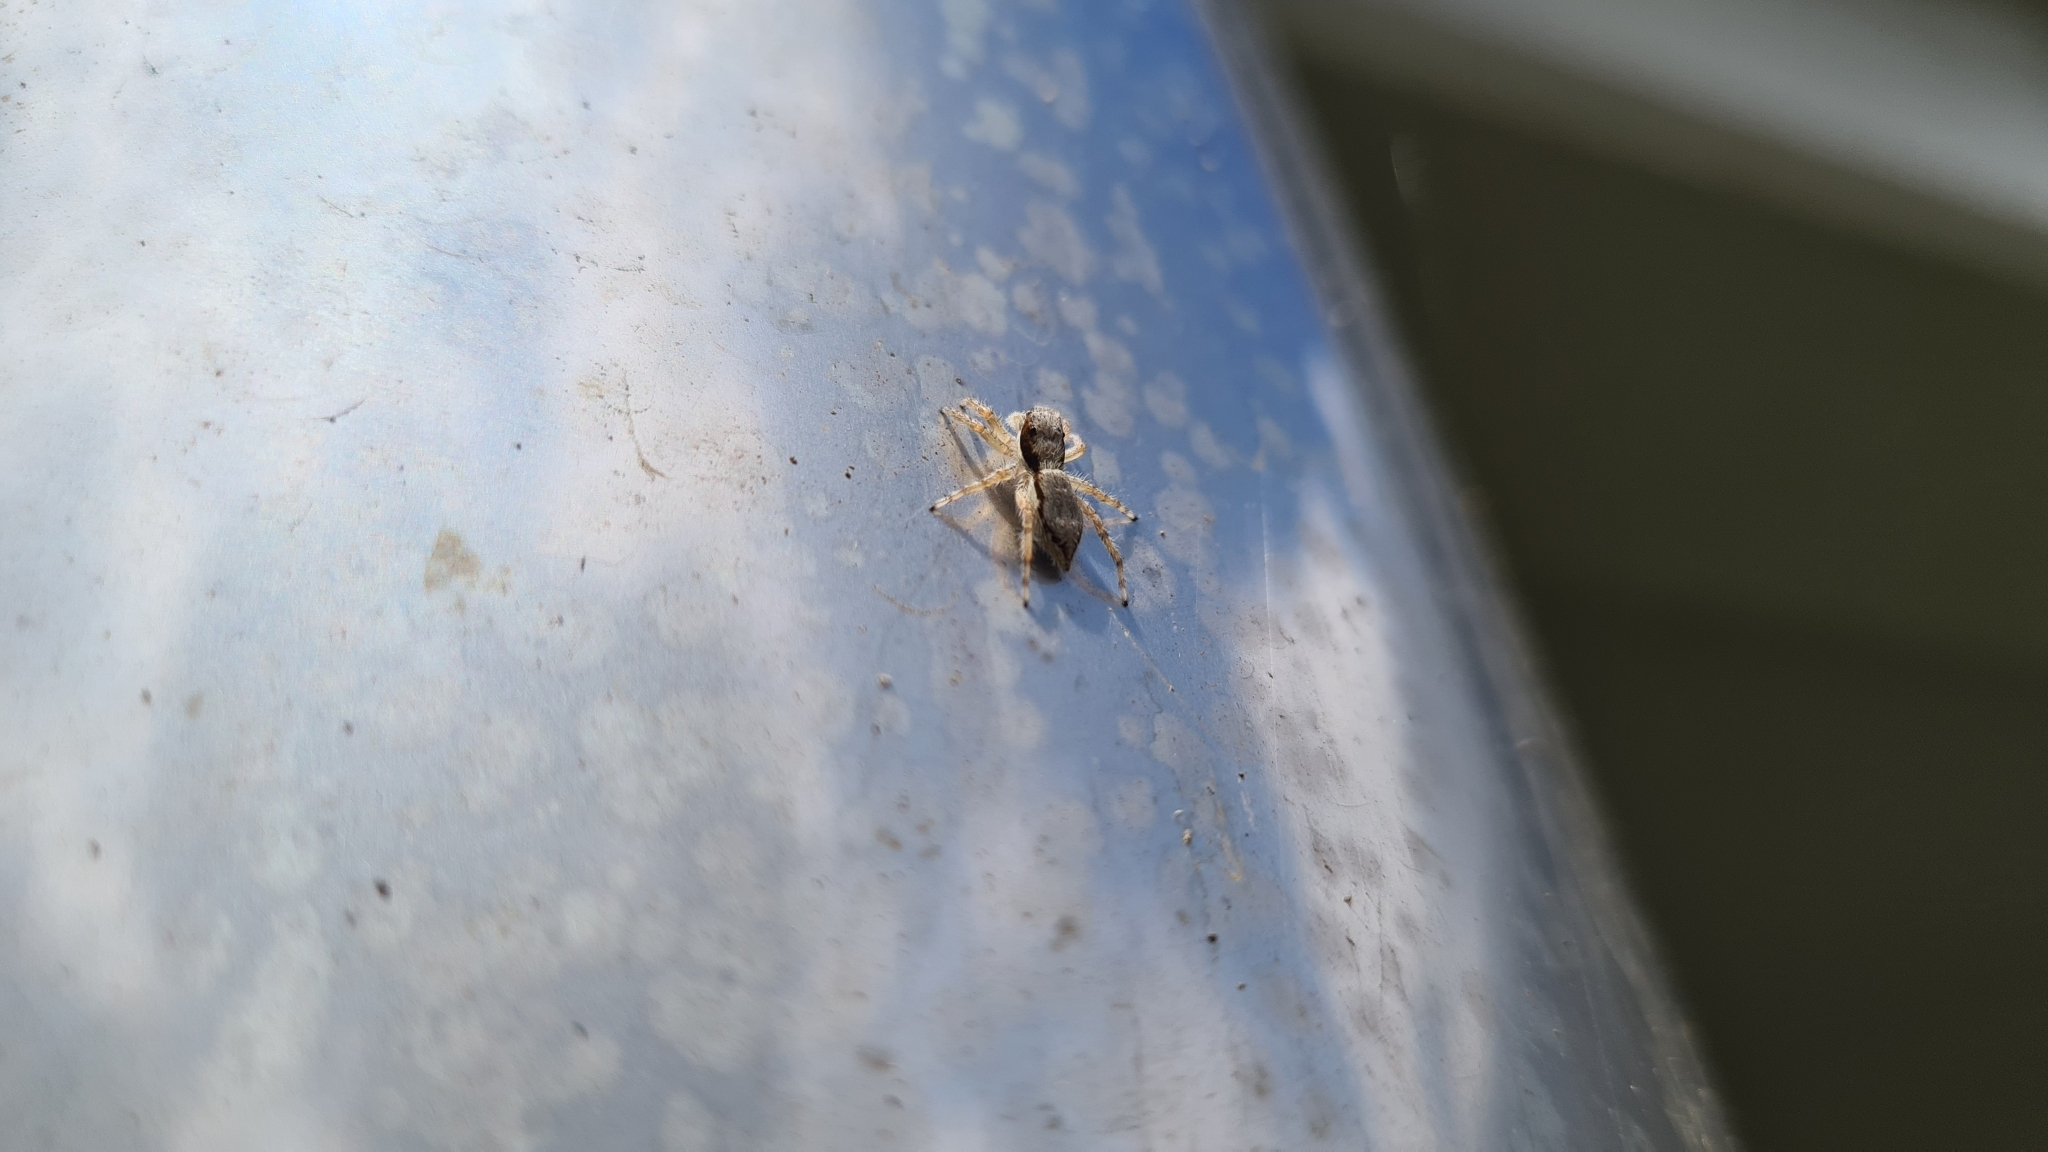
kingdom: Animalia
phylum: Arthropoda
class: Arachnida
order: Araneae
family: Salticidae
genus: Menemerus
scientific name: Menemerus bivittatus
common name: Gray wall jumper
